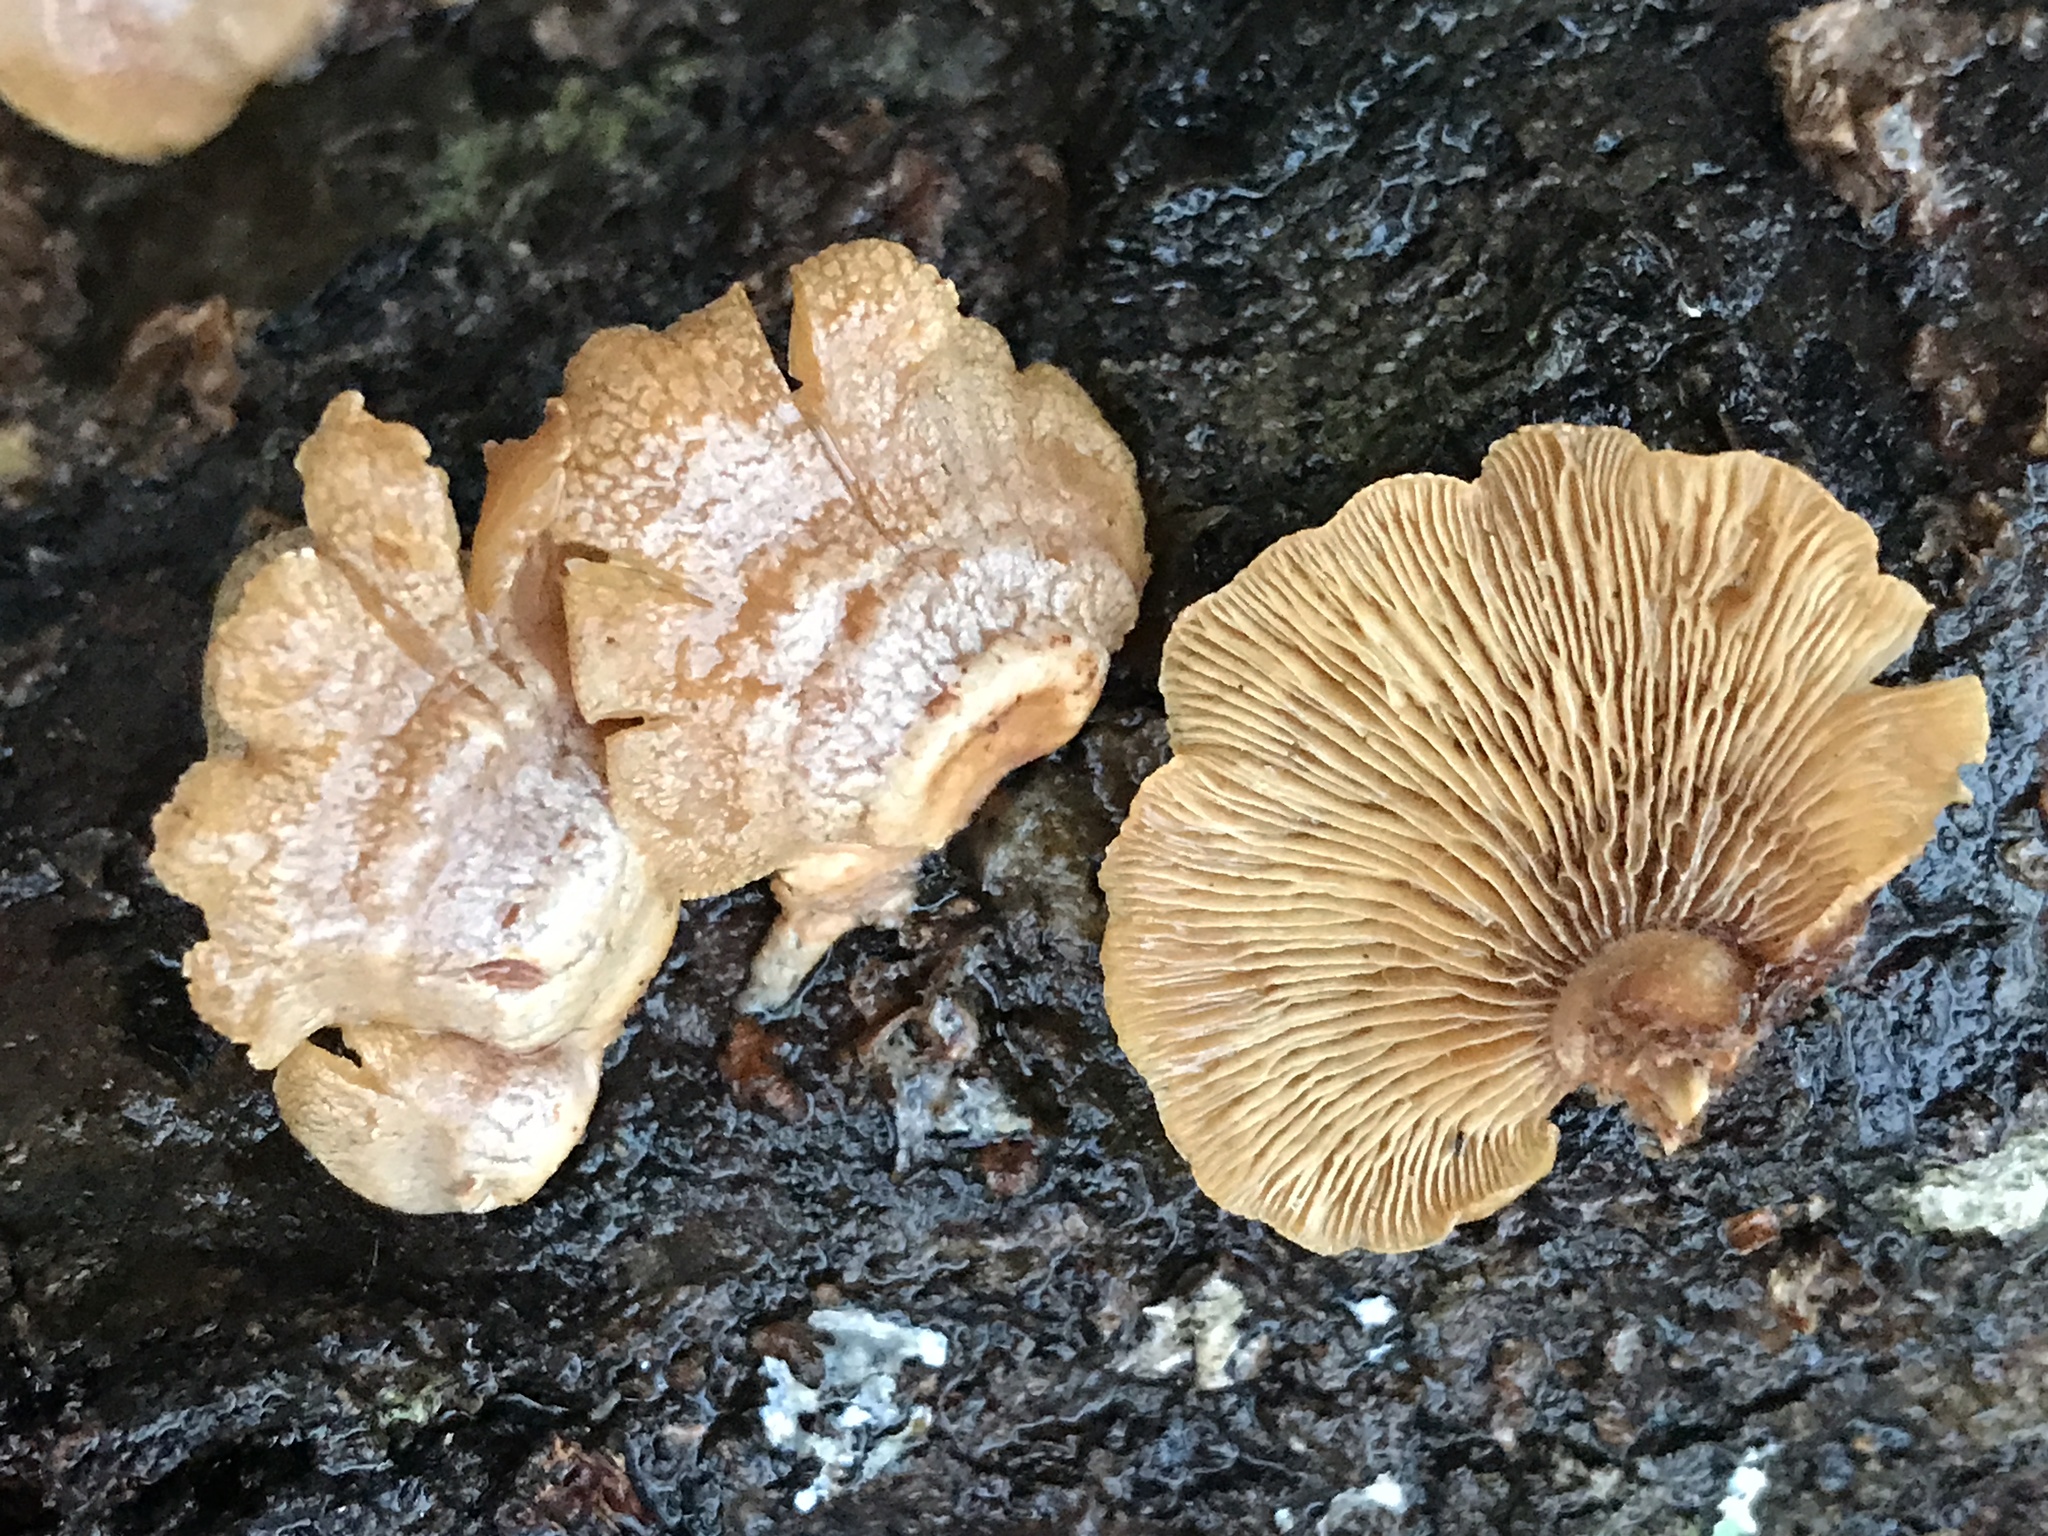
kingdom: Fungi
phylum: Basidiomycota
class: Agaricomycetes
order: Agaricales
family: Mycenaceae
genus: Panellus
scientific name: Panellus stipticus
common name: Bitter oysterling
